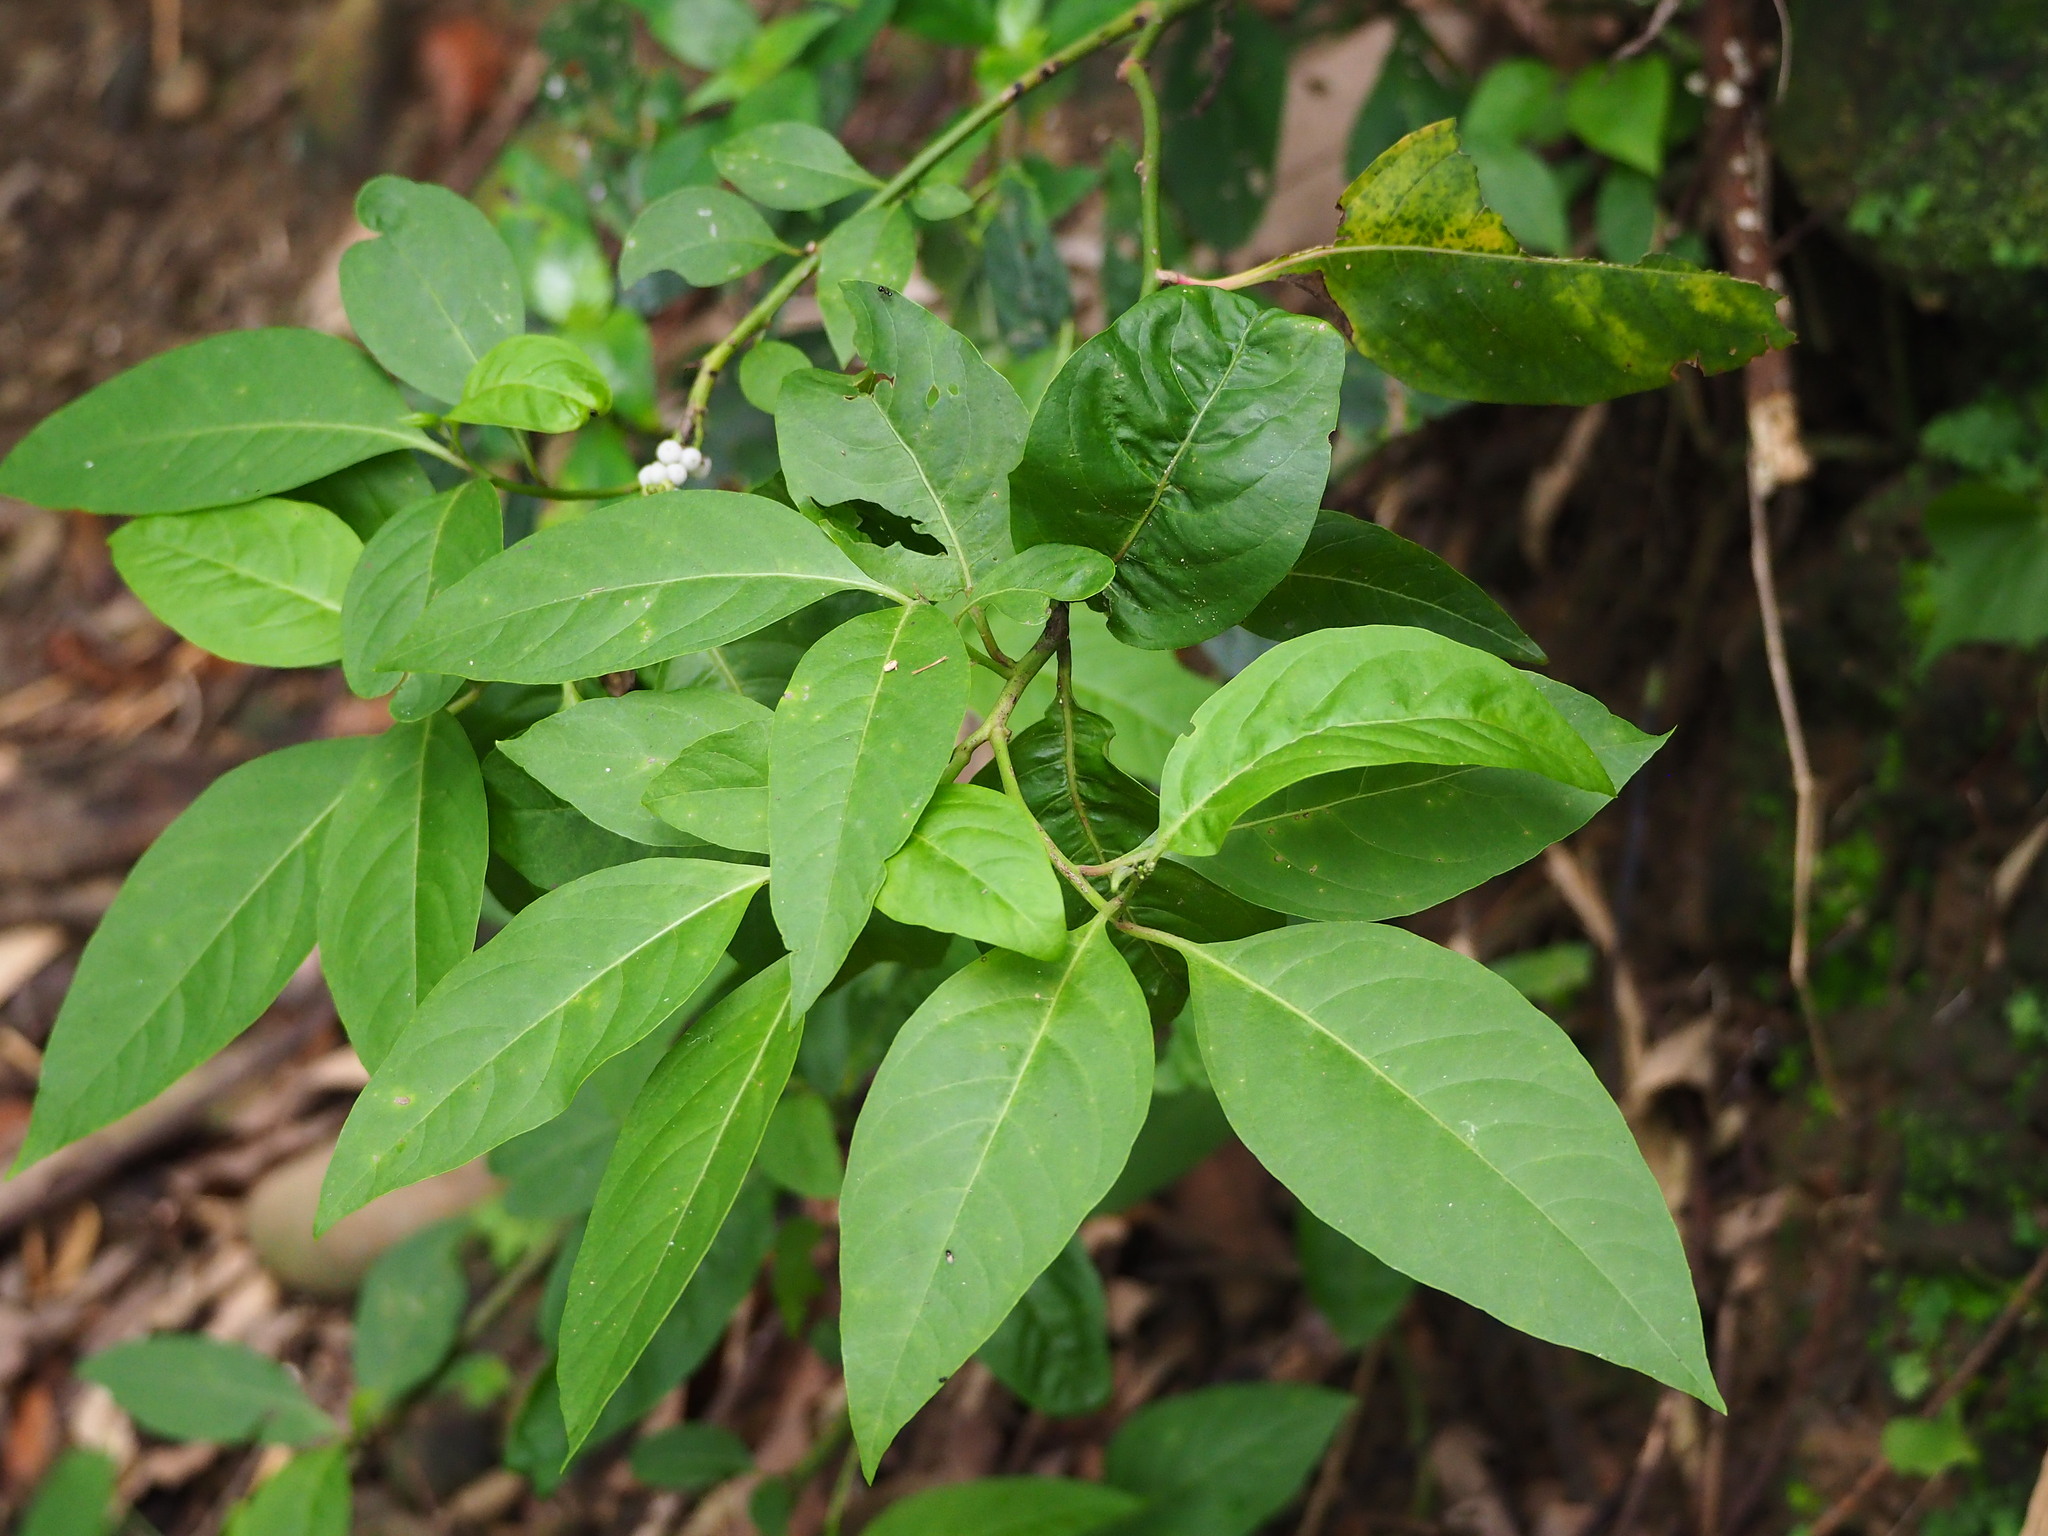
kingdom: Plantae
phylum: Tracheophyta
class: Magnoliopsida
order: Caryophyllales
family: Amaranthaceae
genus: Deeringia
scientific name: Deeringia polysperma
